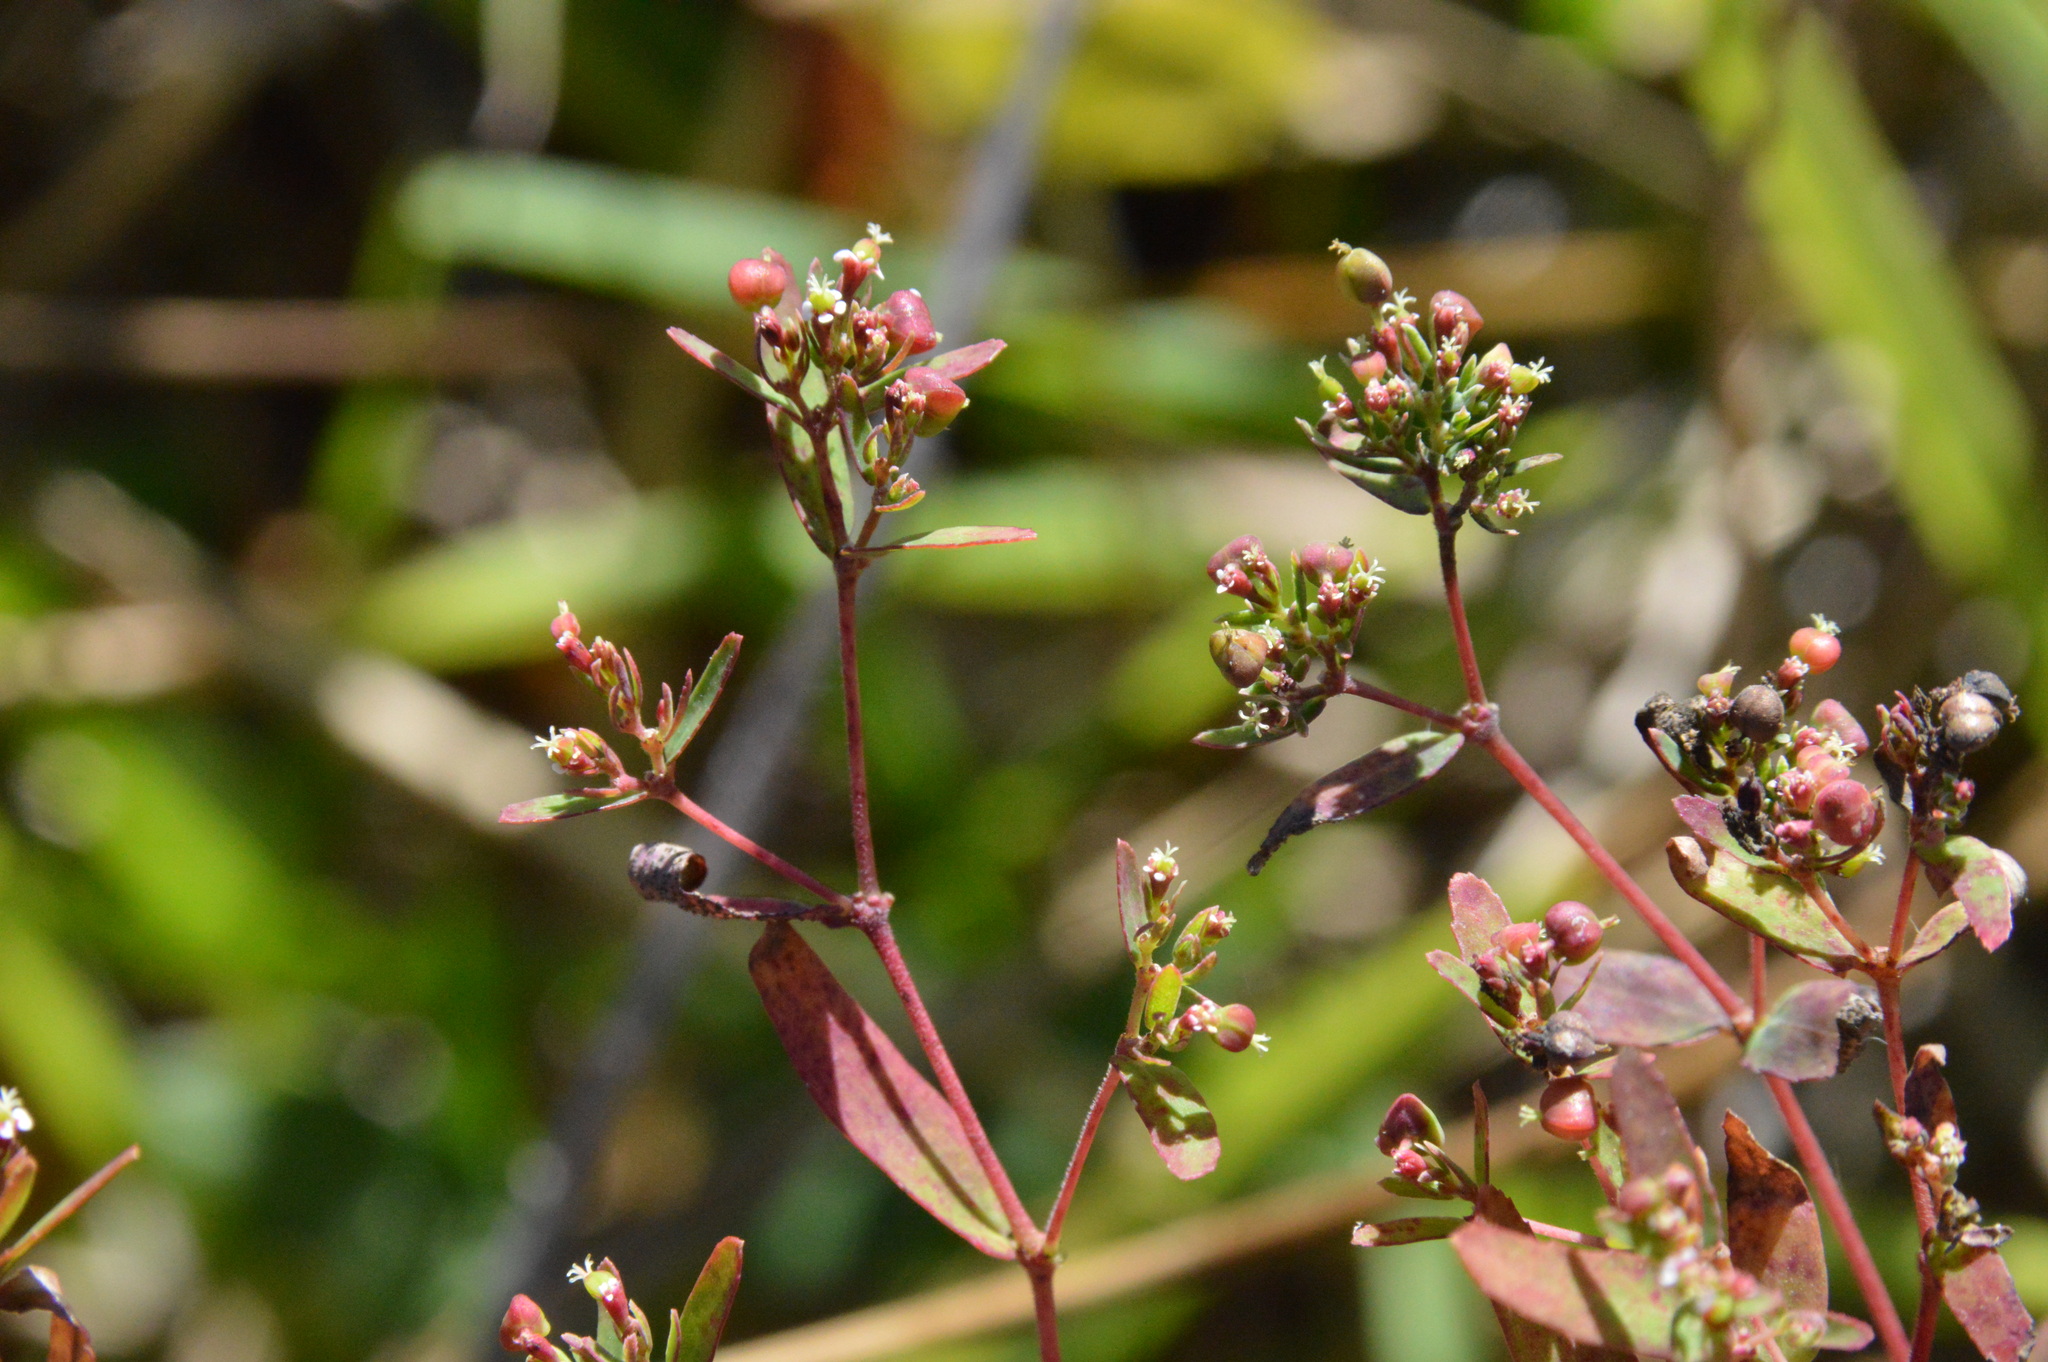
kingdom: Plantae
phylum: Tracheophyta
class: Magnoliopsida
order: Malpighiales
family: Euphorbiaceae
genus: Euphorbia
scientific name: Euphorbia nutans
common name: Eyebane
